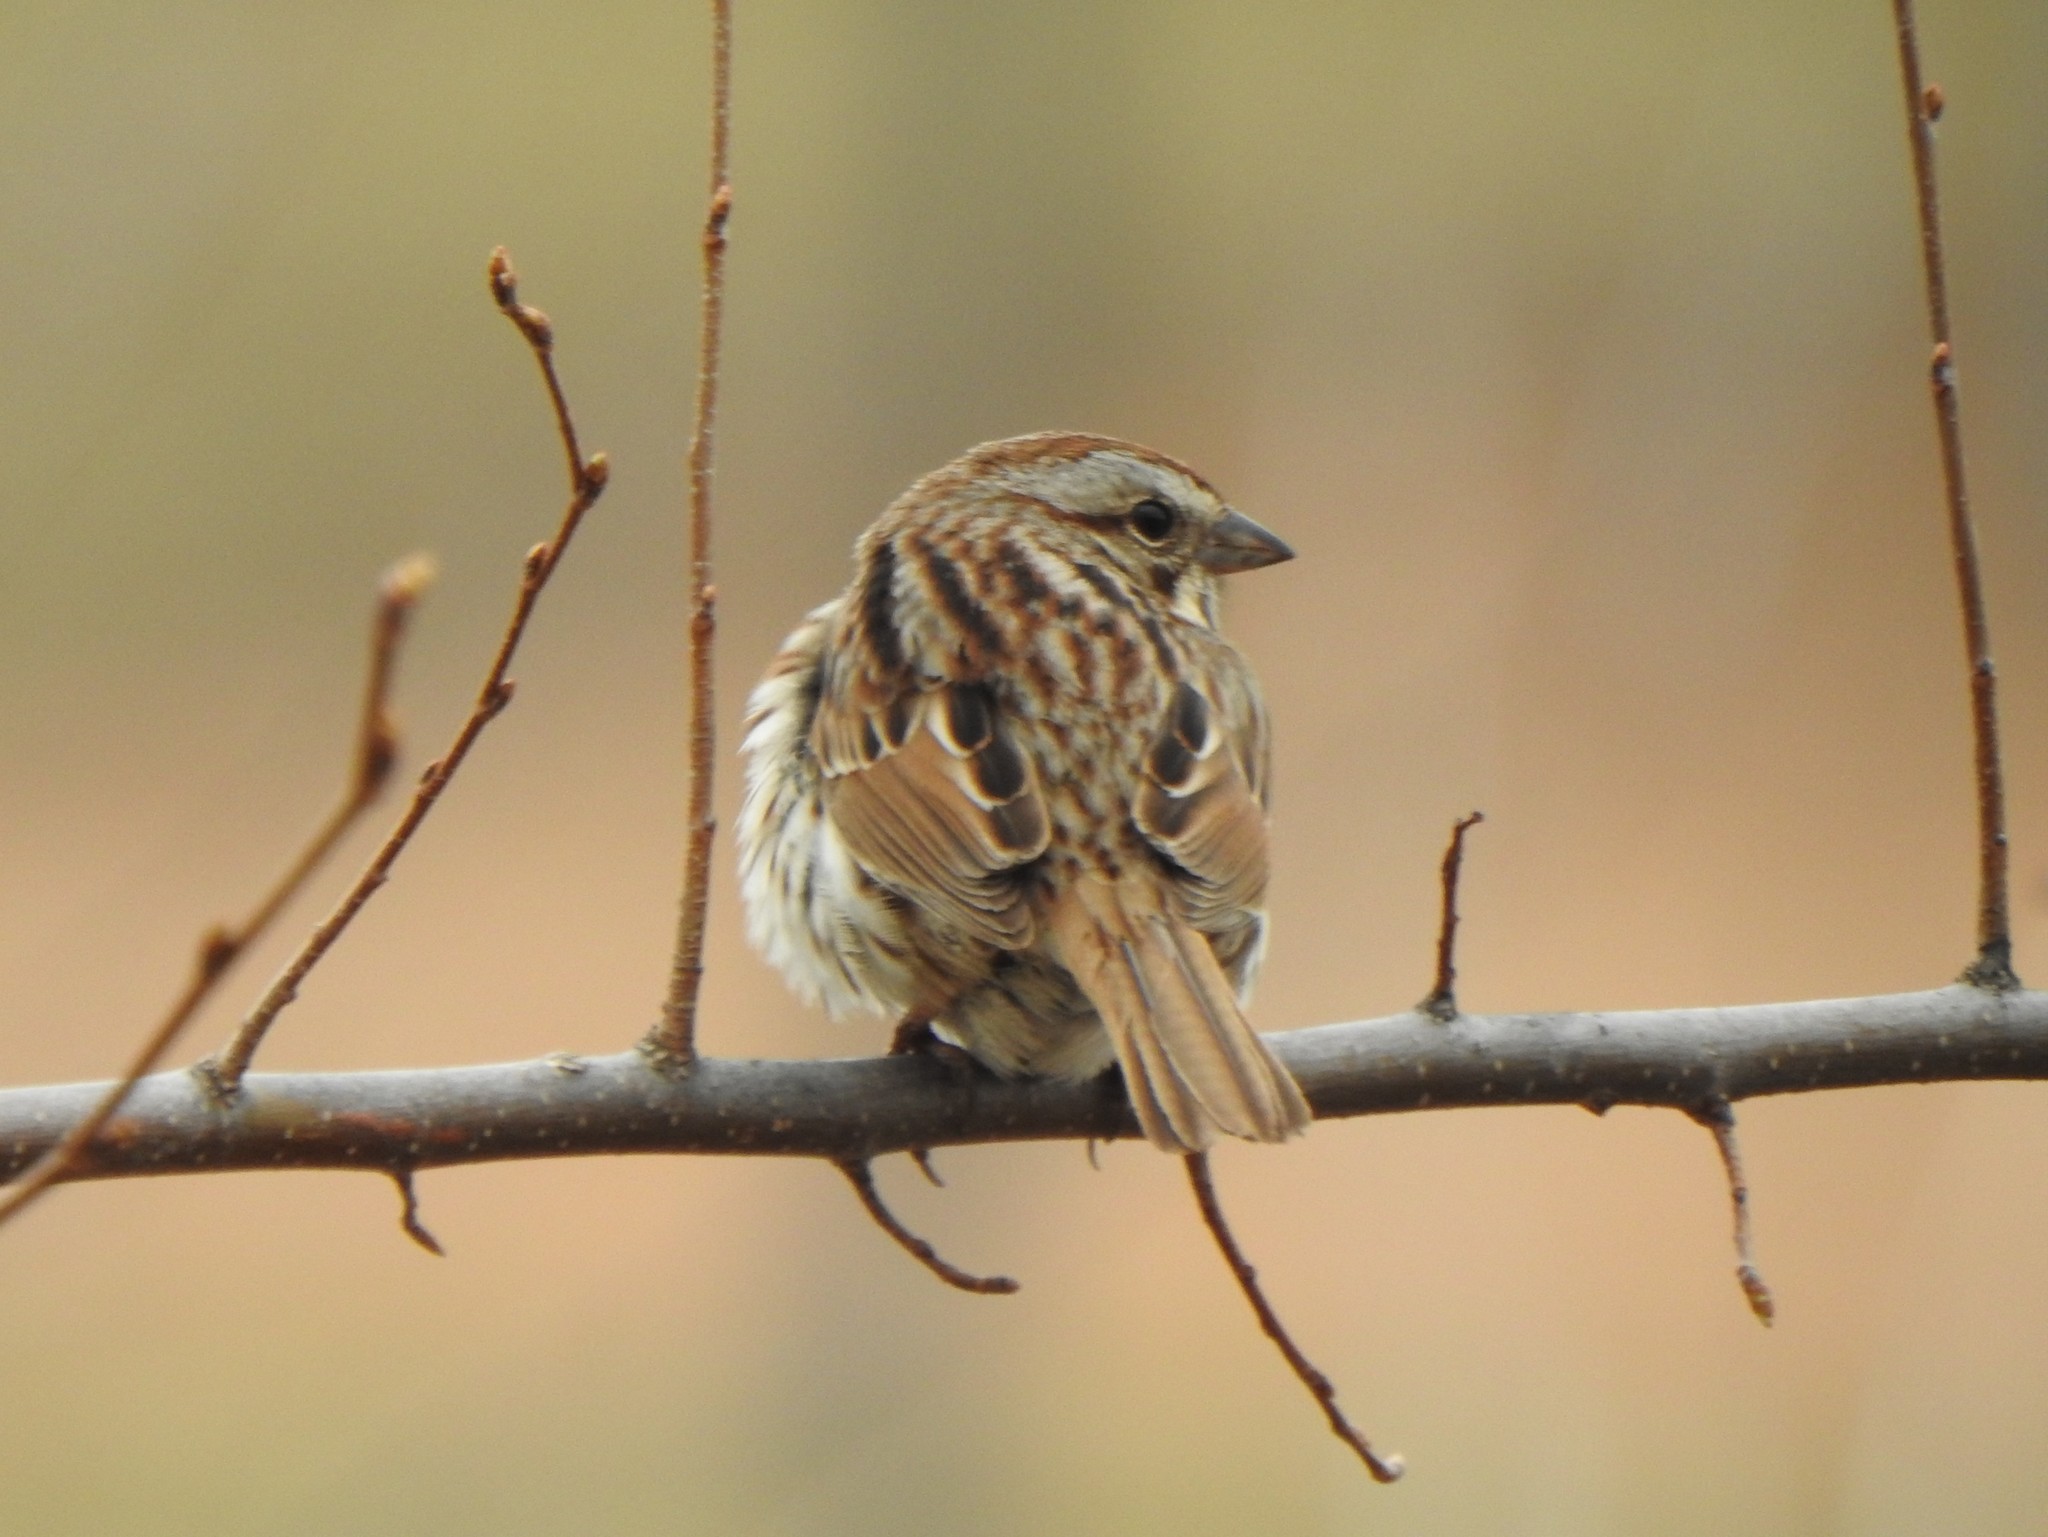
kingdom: Animalia
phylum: Chordata
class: Aves
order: Passeriformes
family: Passerellidae
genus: Melospiza
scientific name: Melospiza melodia
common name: Song sparrow
